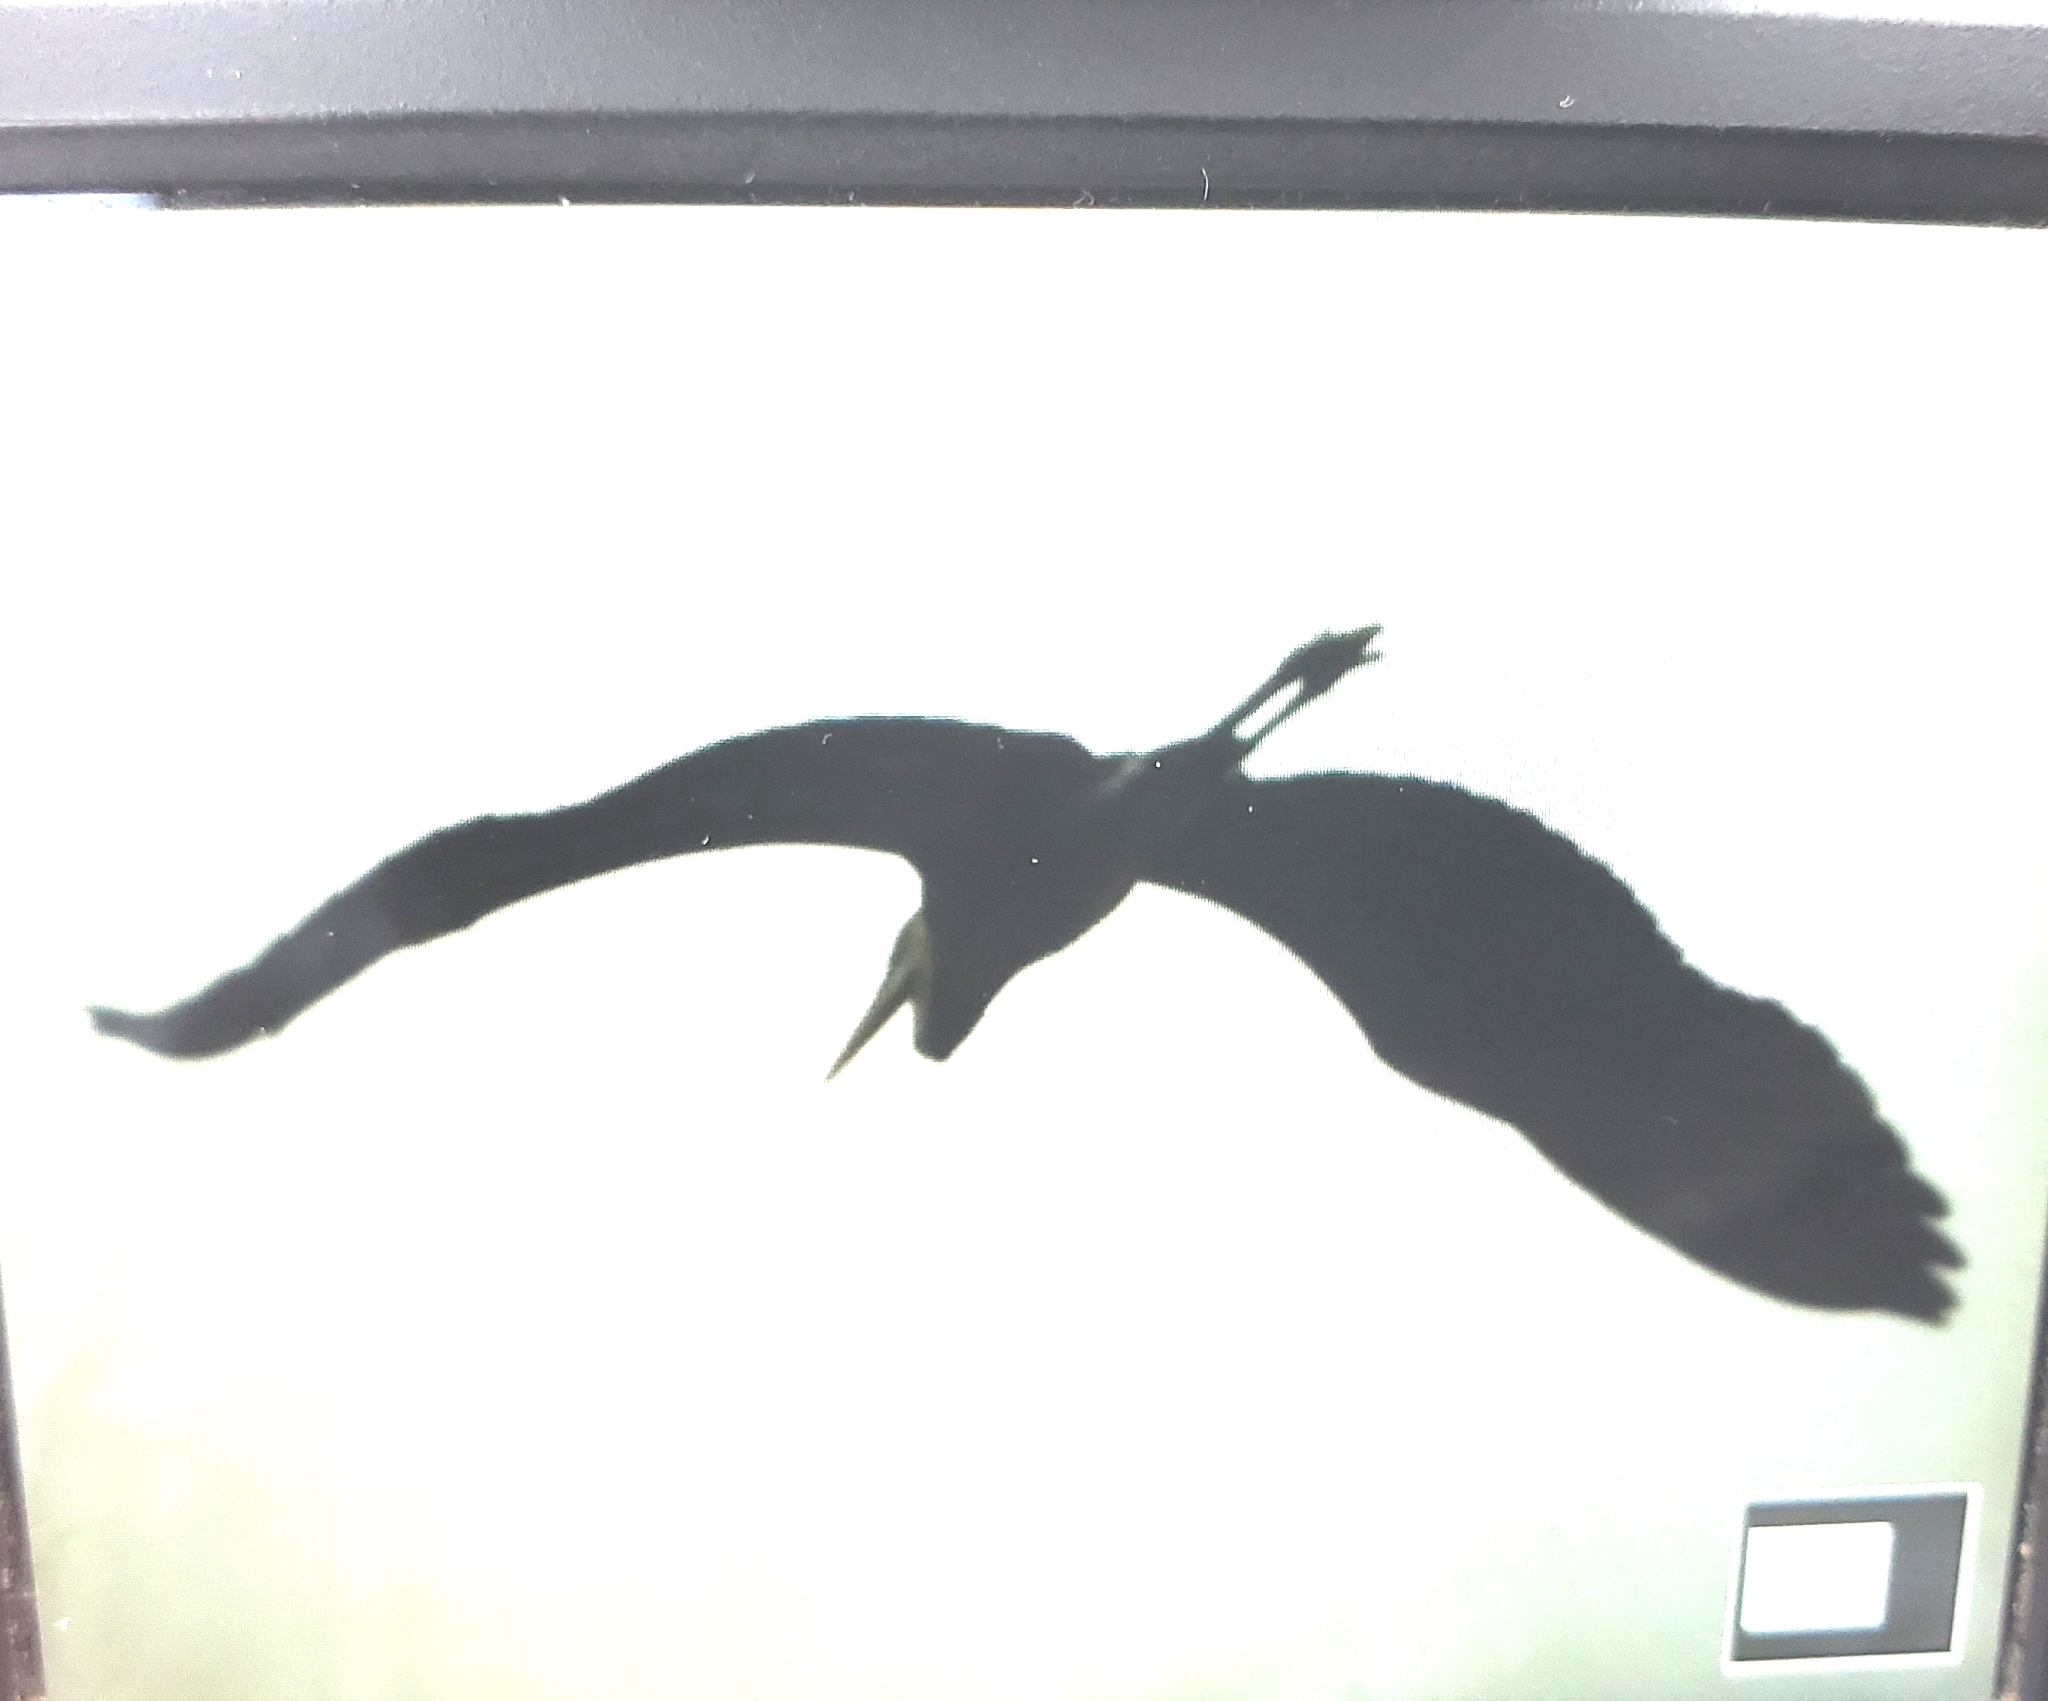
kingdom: Animalia
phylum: Chordata
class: Aves
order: Pelecaniformes
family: Ardeidae
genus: Egretta
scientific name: Egretta caerulea
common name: Little blue heron
